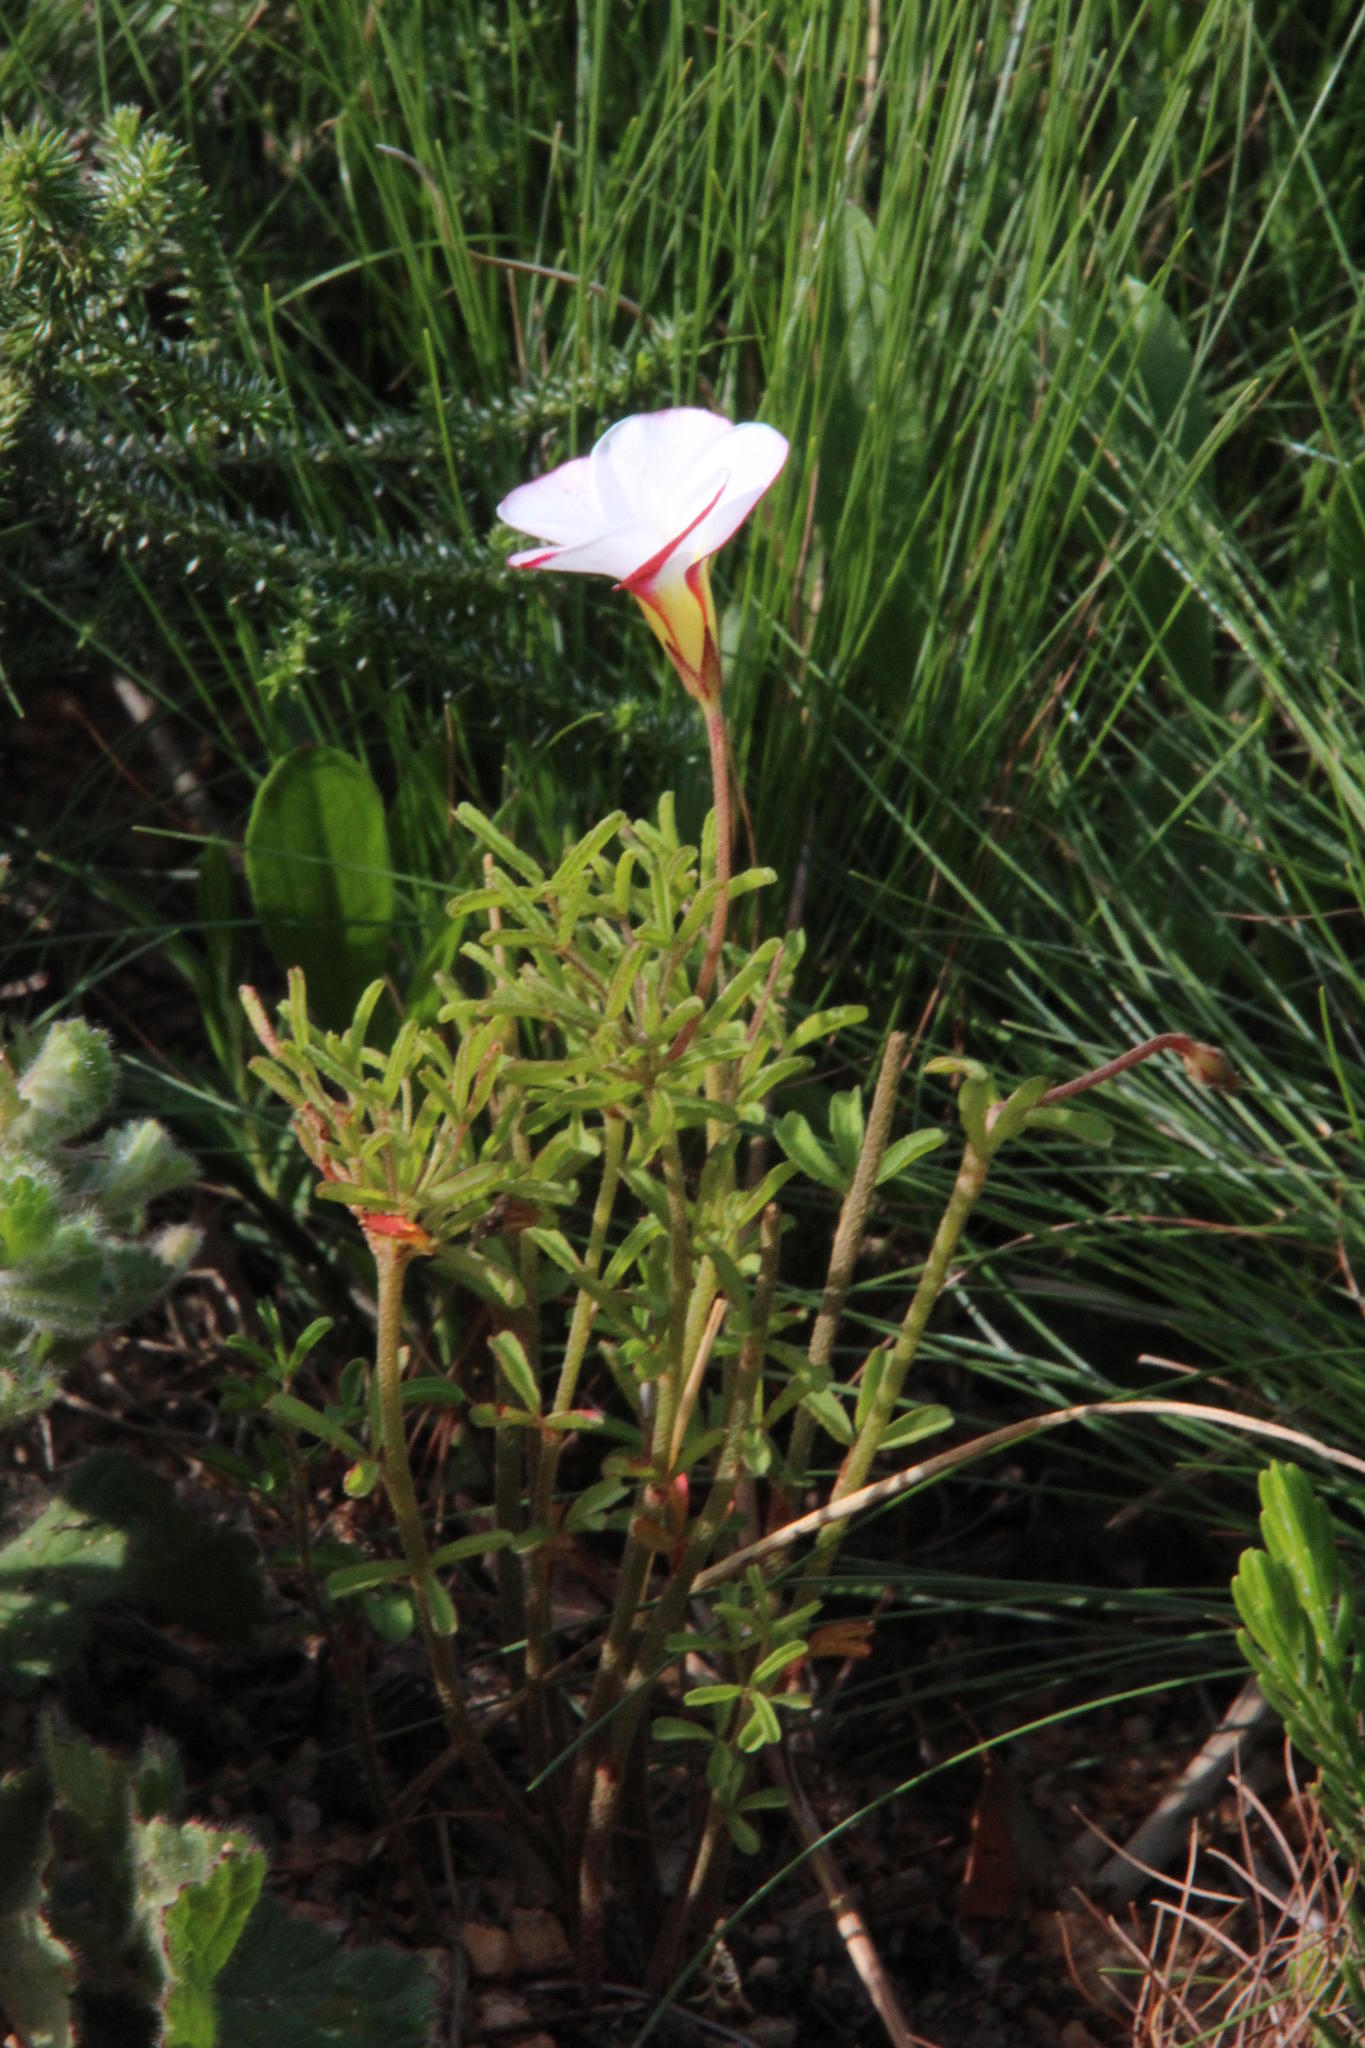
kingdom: Plantae
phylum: Tracheophyta
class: Magnoliopsida
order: Oxalidales
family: Oxalidaceae
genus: Oxalis
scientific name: Oxalis versicolor
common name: Peppermint rock oxalis
